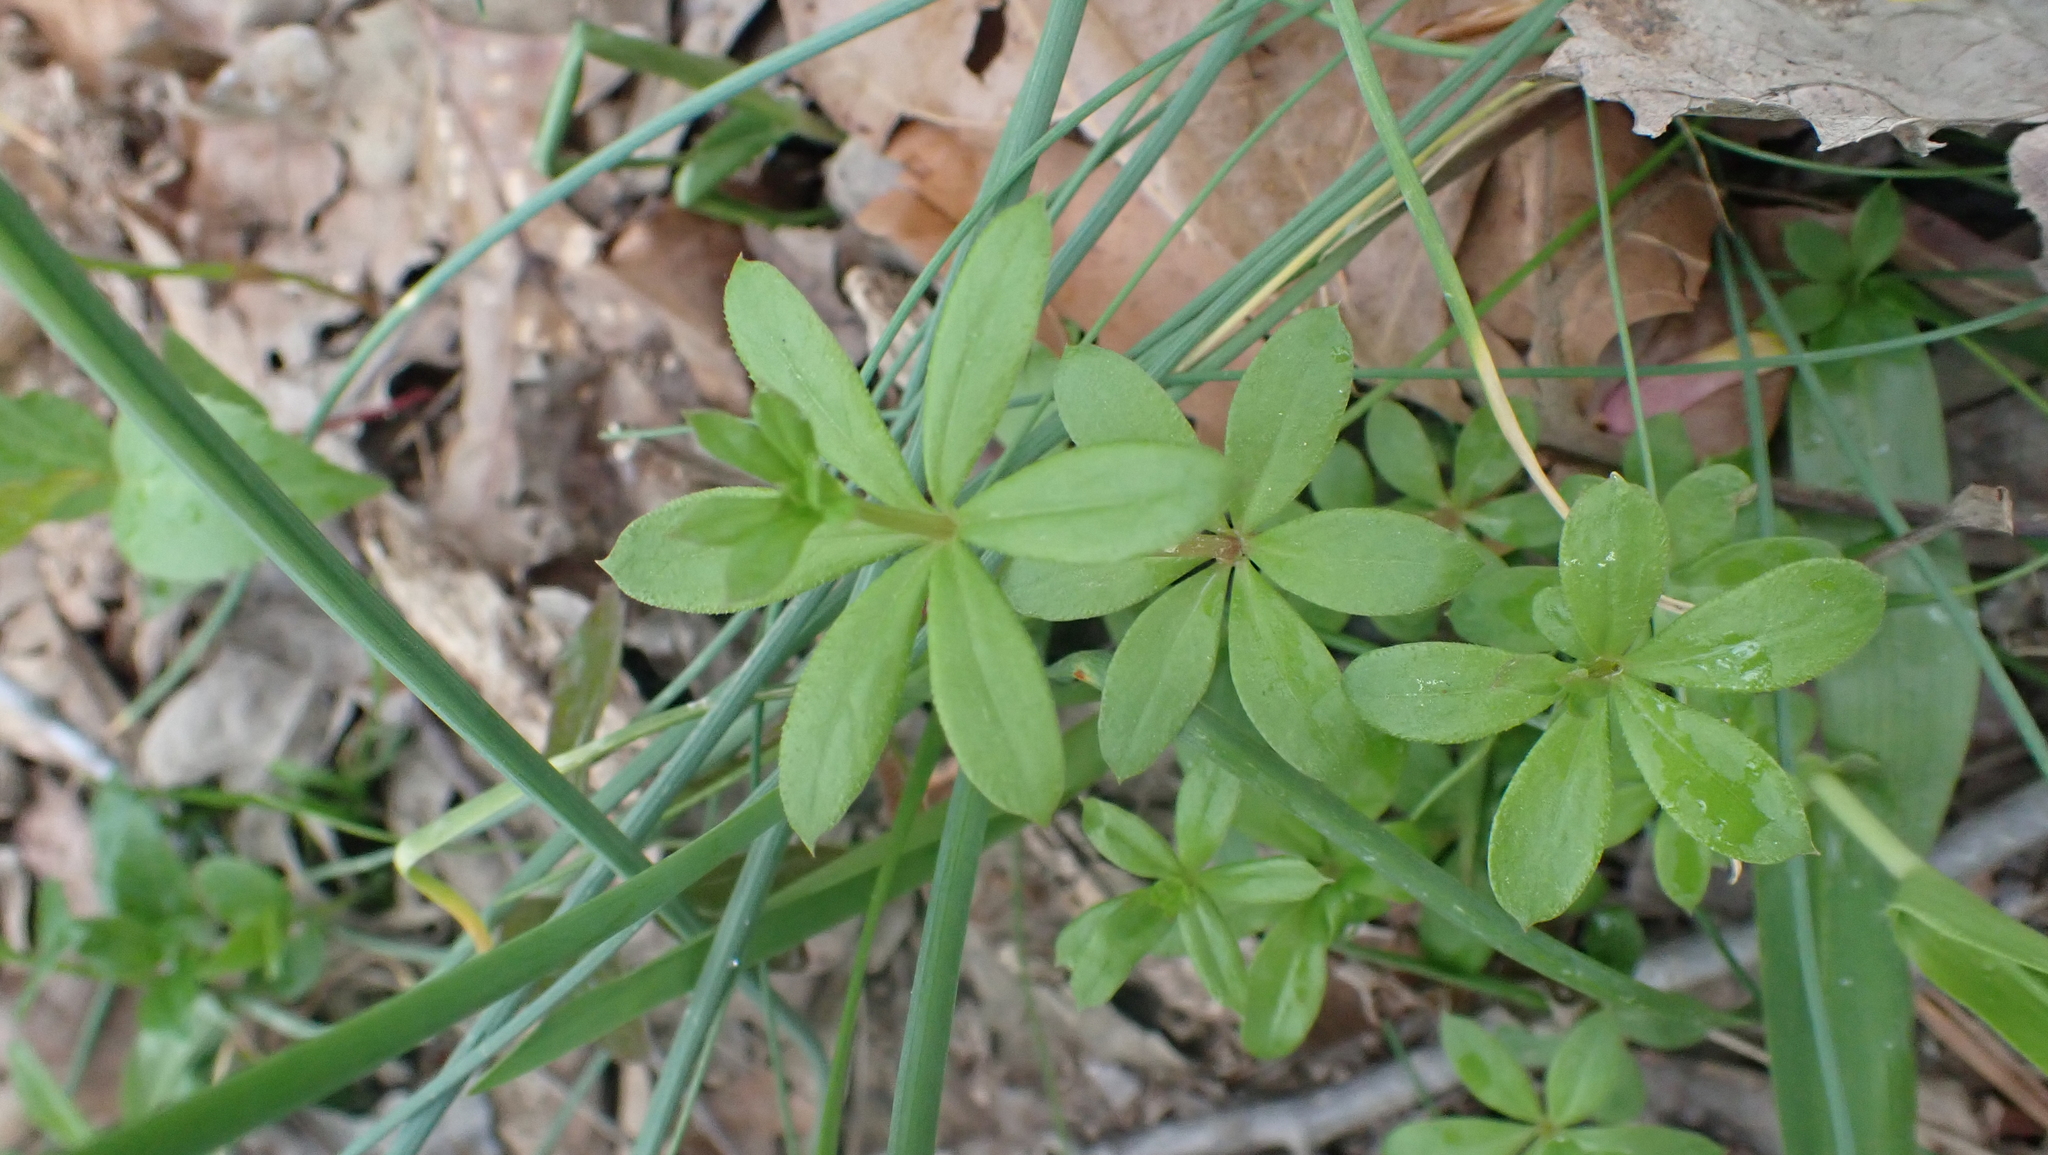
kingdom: Plantae
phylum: Tracheophyta
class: Magnoliopsida
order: Gentianales
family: Rubiaceae
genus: Galium
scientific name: Galium triflorum
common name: Fragrant bedstraw
